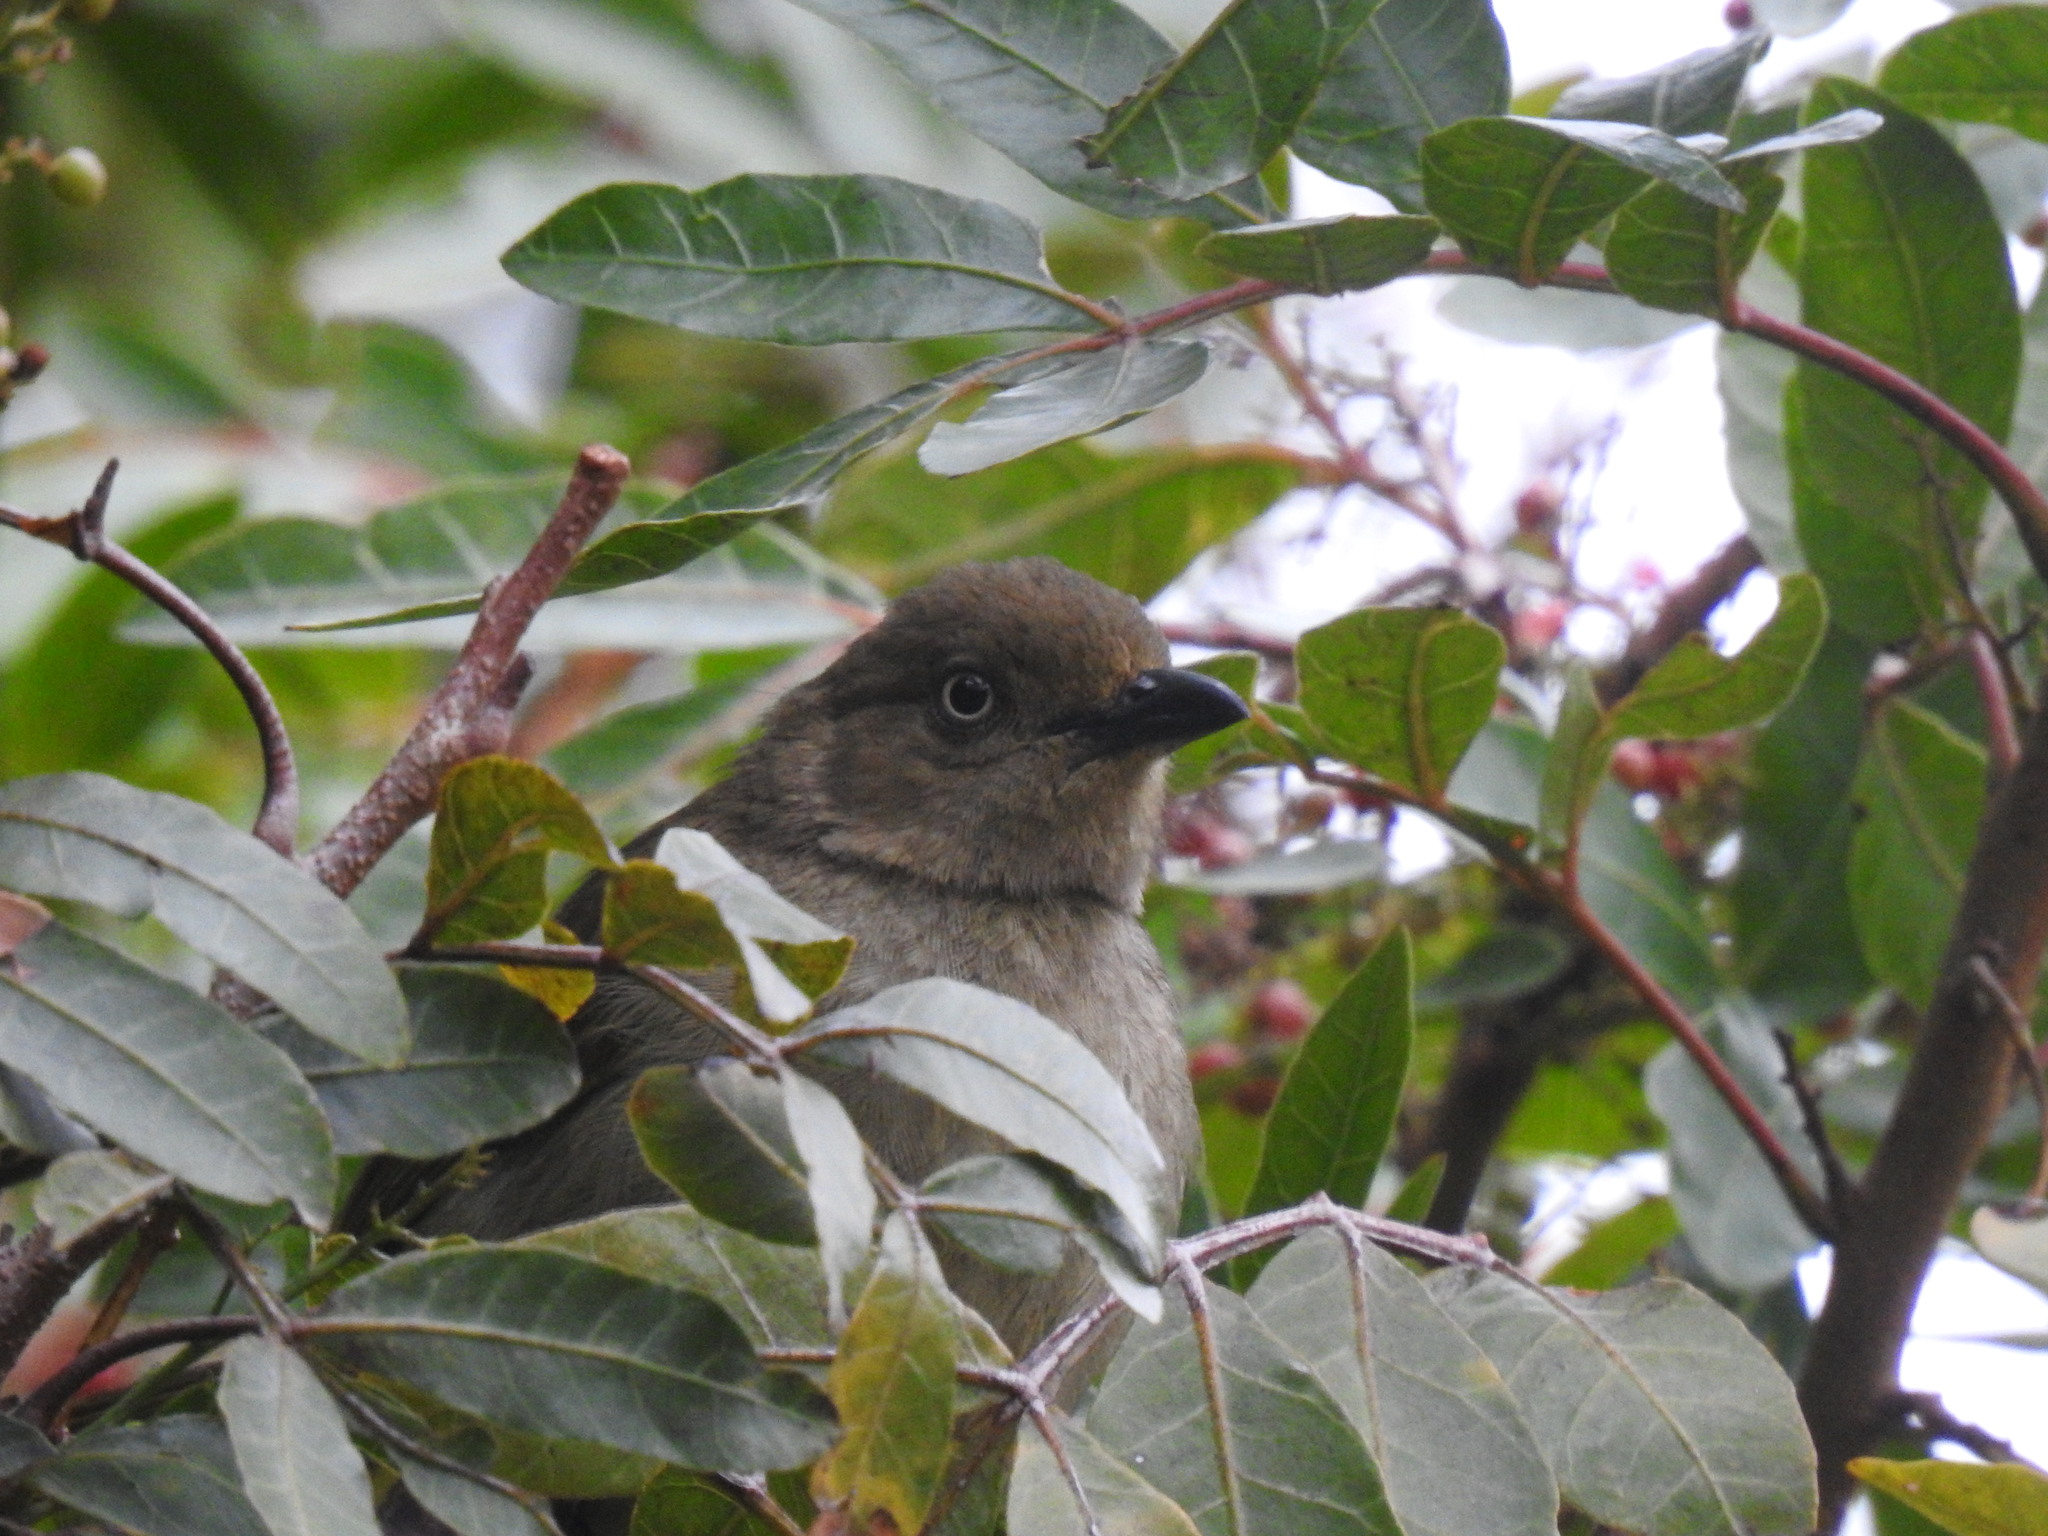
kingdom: Animalia
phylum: Chordata
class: Aves
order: Passeriformes
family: Pycnonotidae
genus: Andropadus
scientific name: Andropadus importunus
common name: Sombre greenbul
